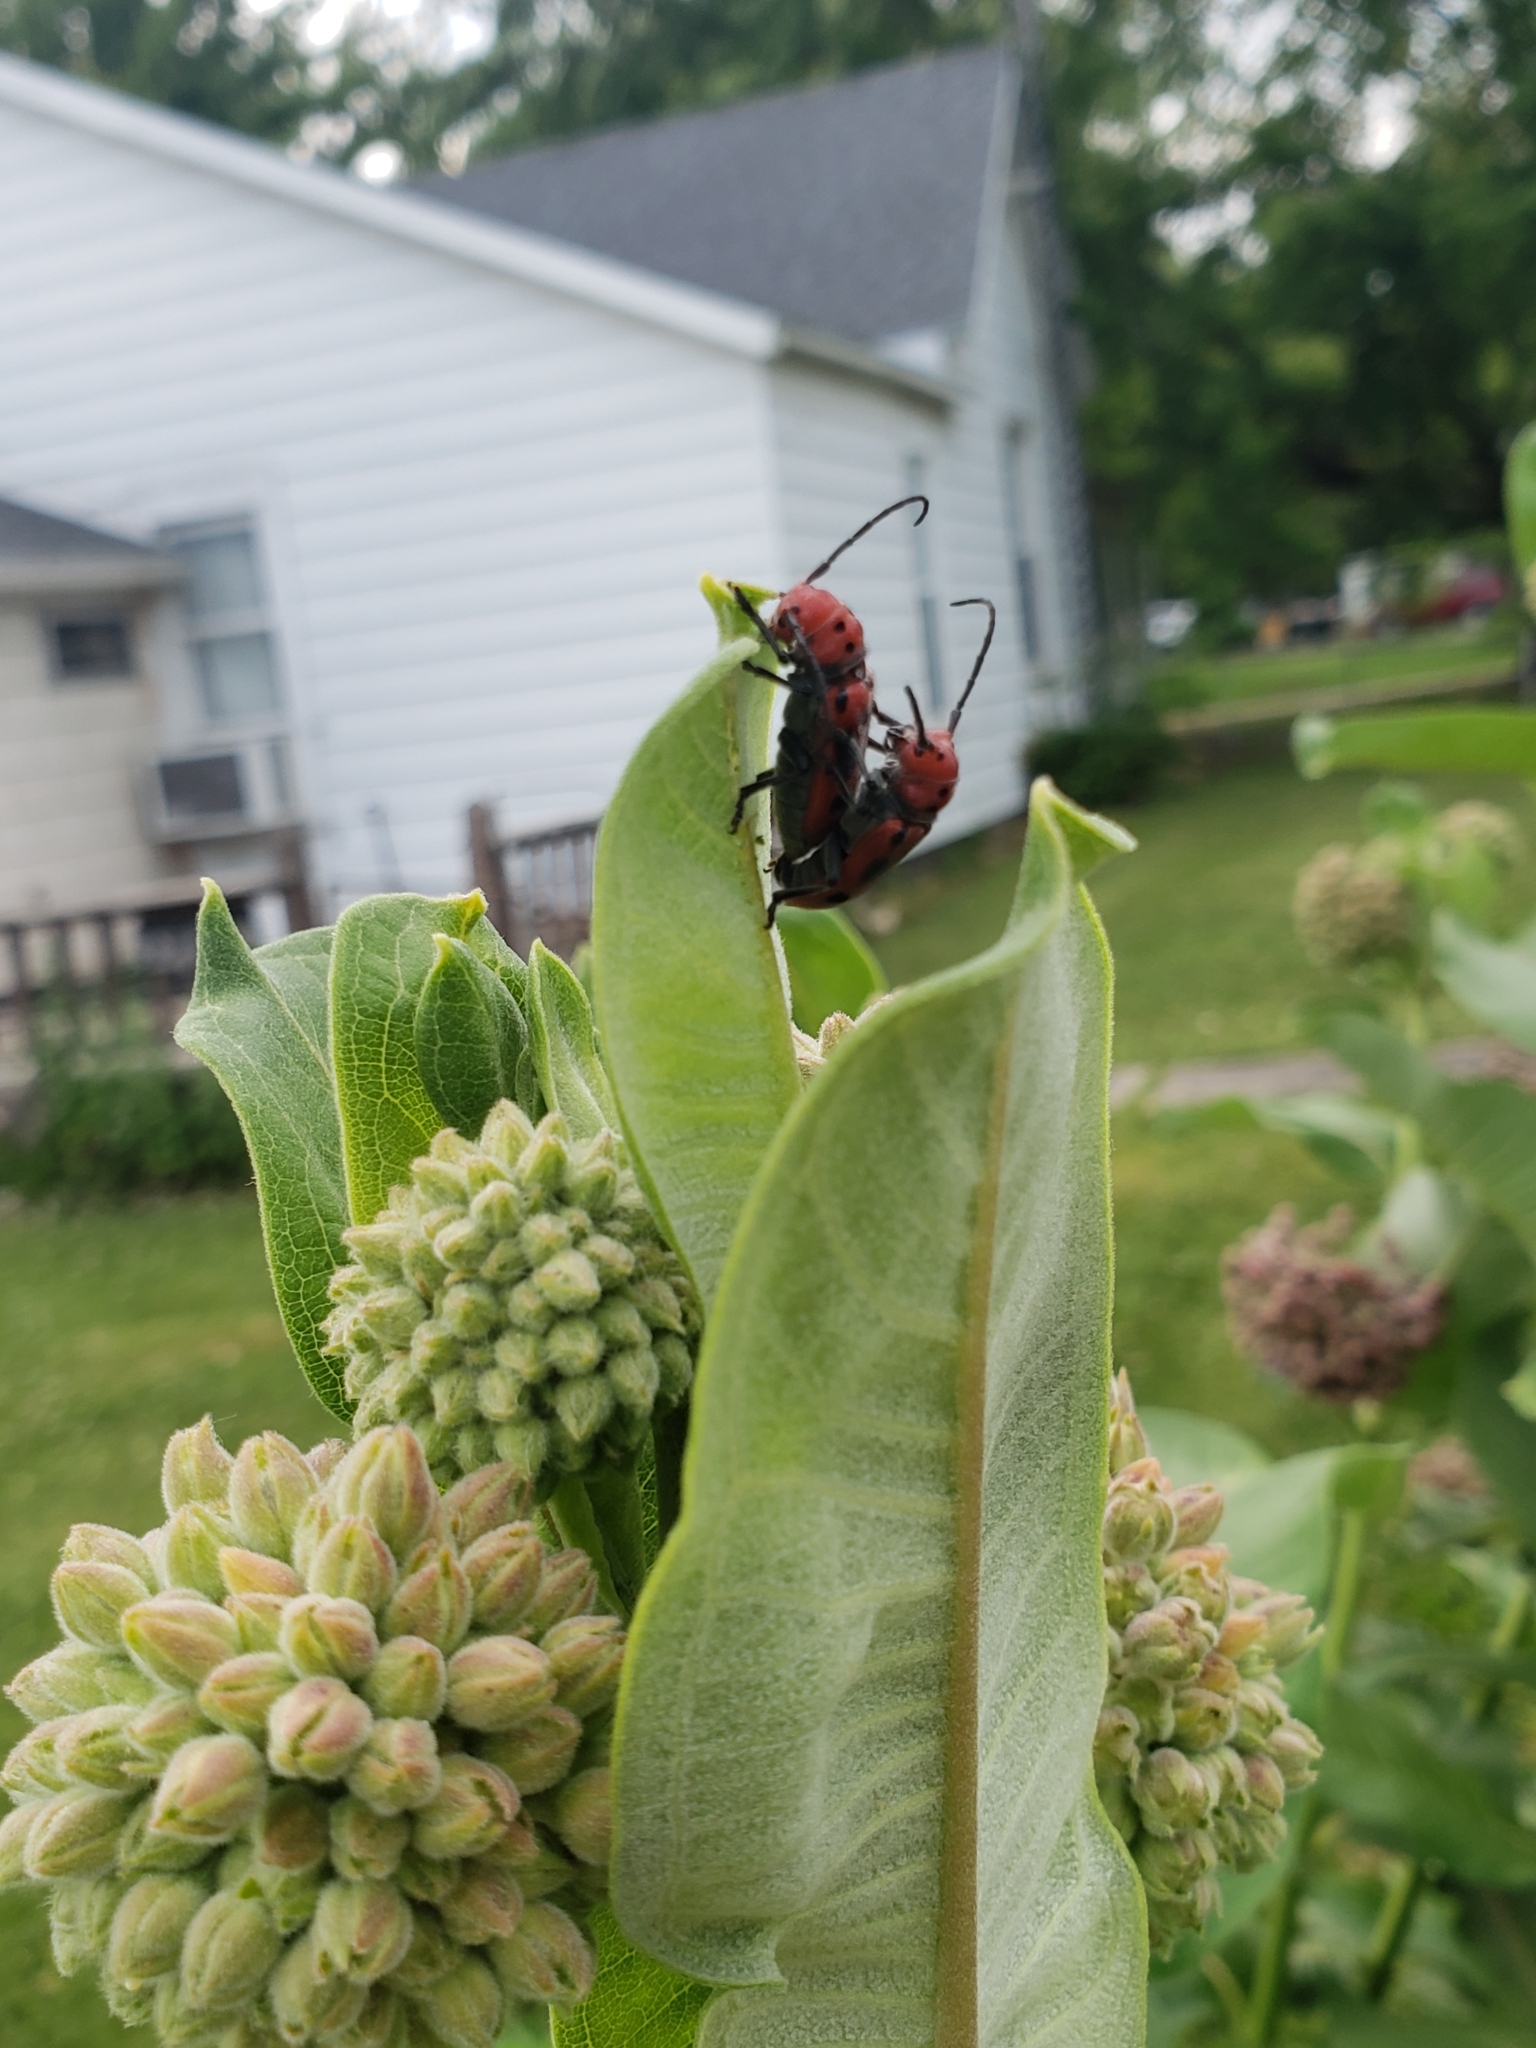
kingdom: Animalia
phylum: Arthropoda
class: Insecta
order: Coleoptera
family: Cerambycidae
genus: Tetraopes
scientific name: Tetraopes tetrophthalmus
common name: Red milkweed beetle
